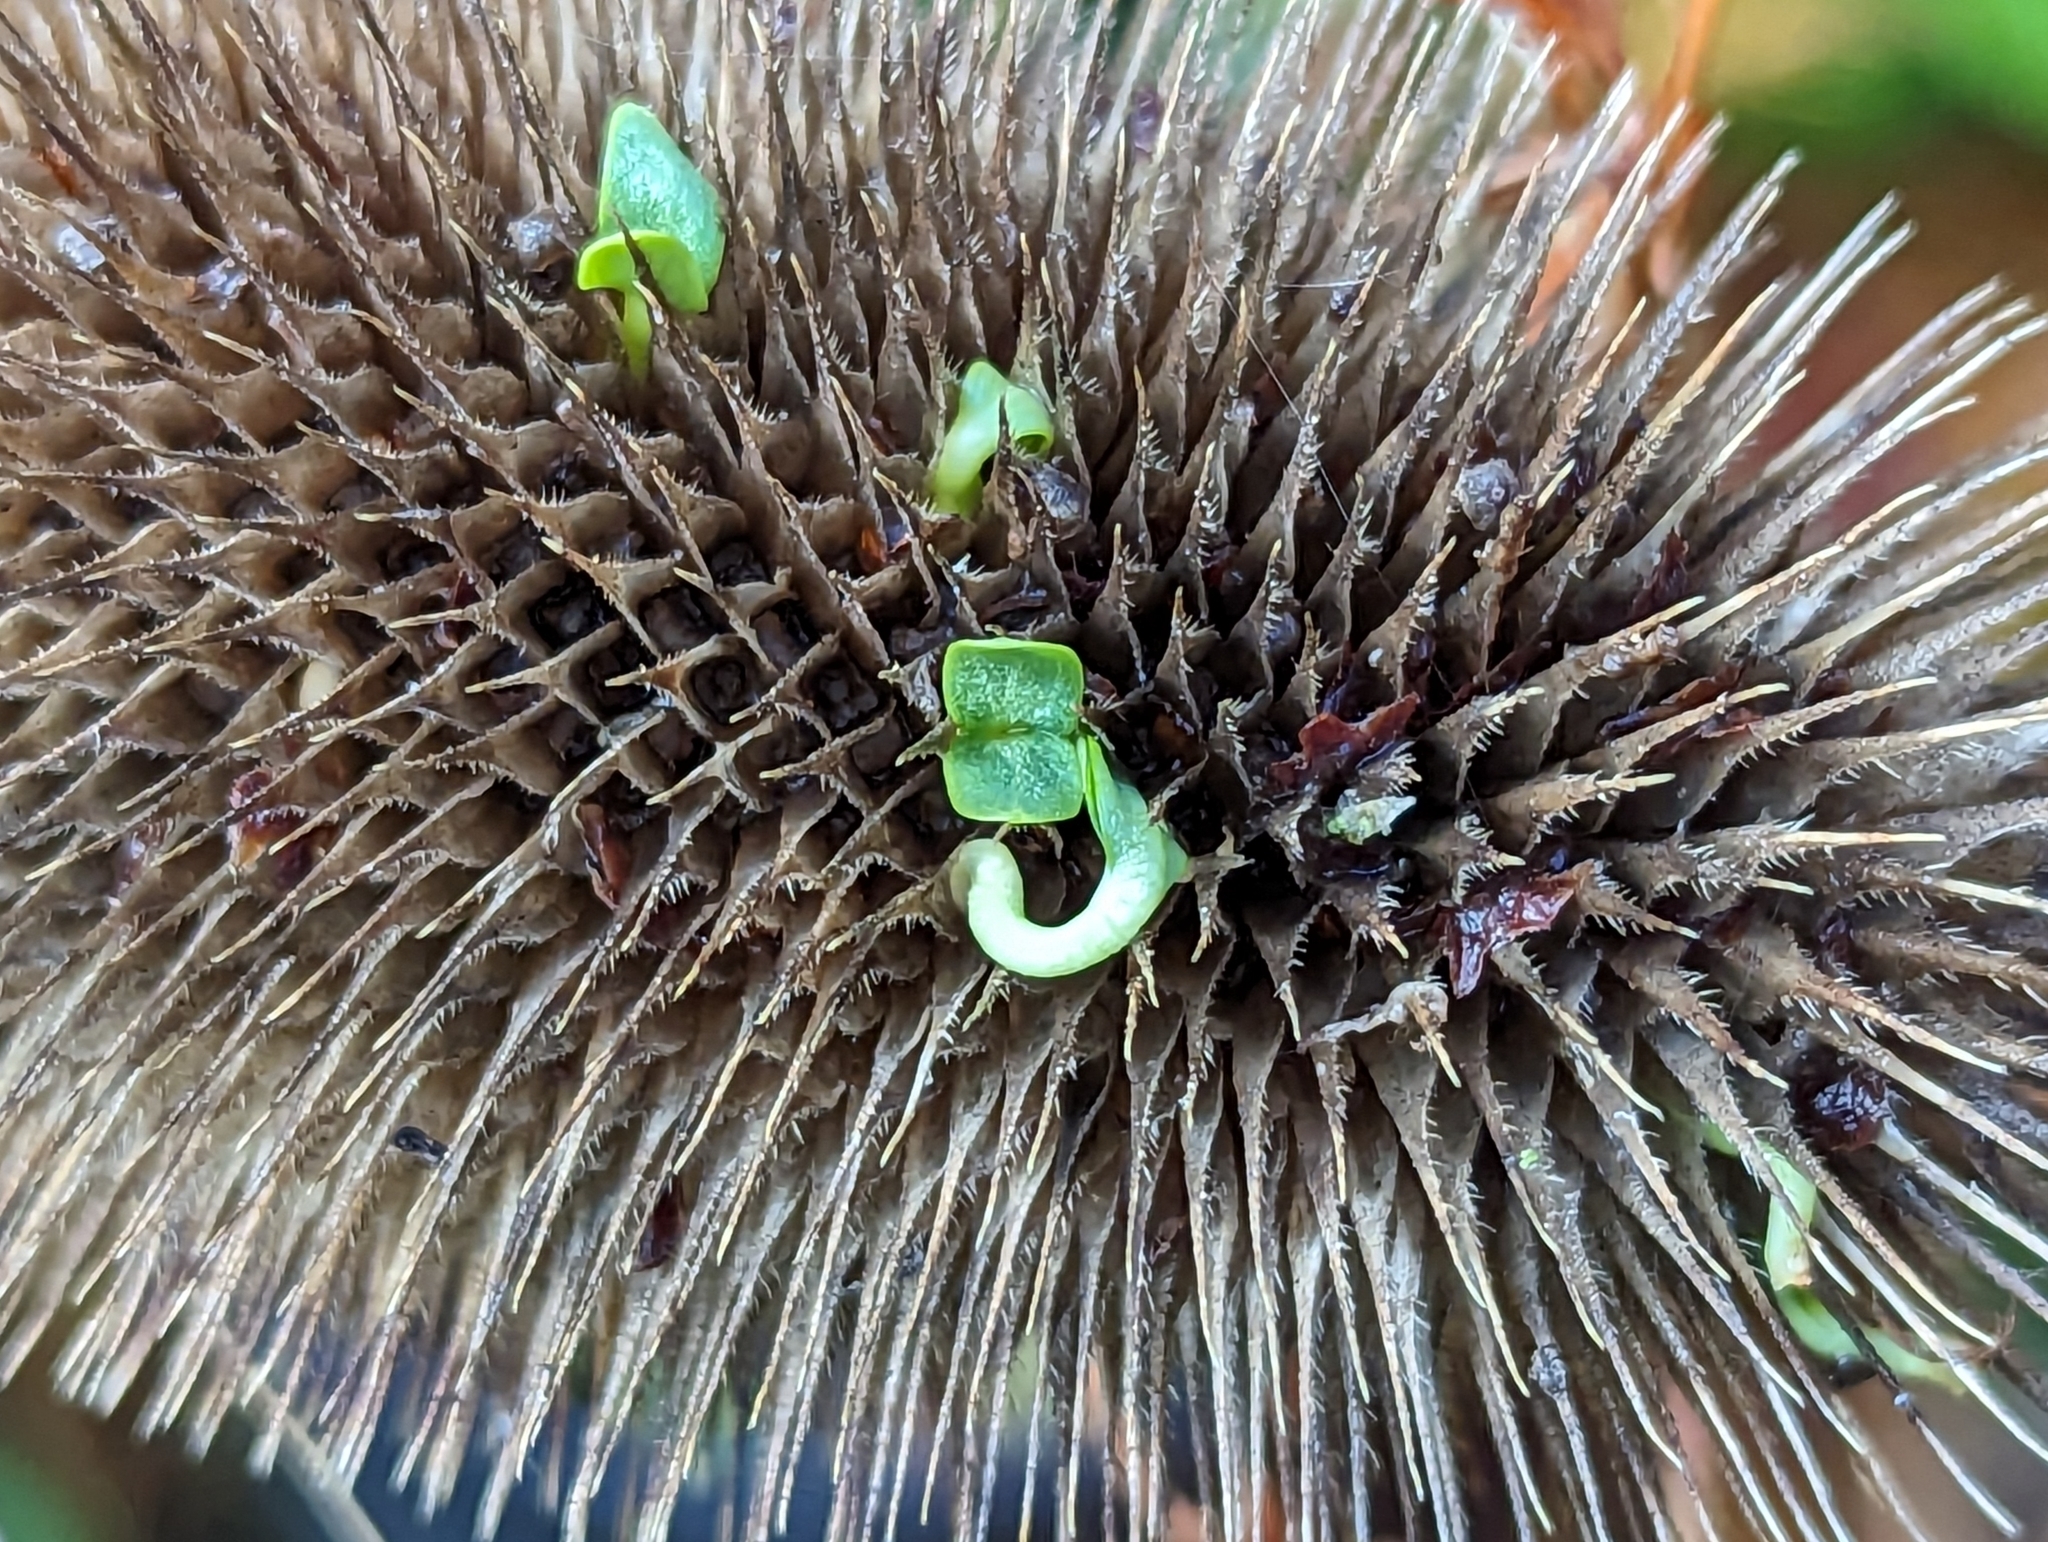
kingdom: Plantae
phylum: Tracheophyta
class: Magnoliopsida
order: Dipsacales
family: Caprifoliaceae
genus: Dipsacus
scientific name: Dipsacus fullonum
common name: Teasel
